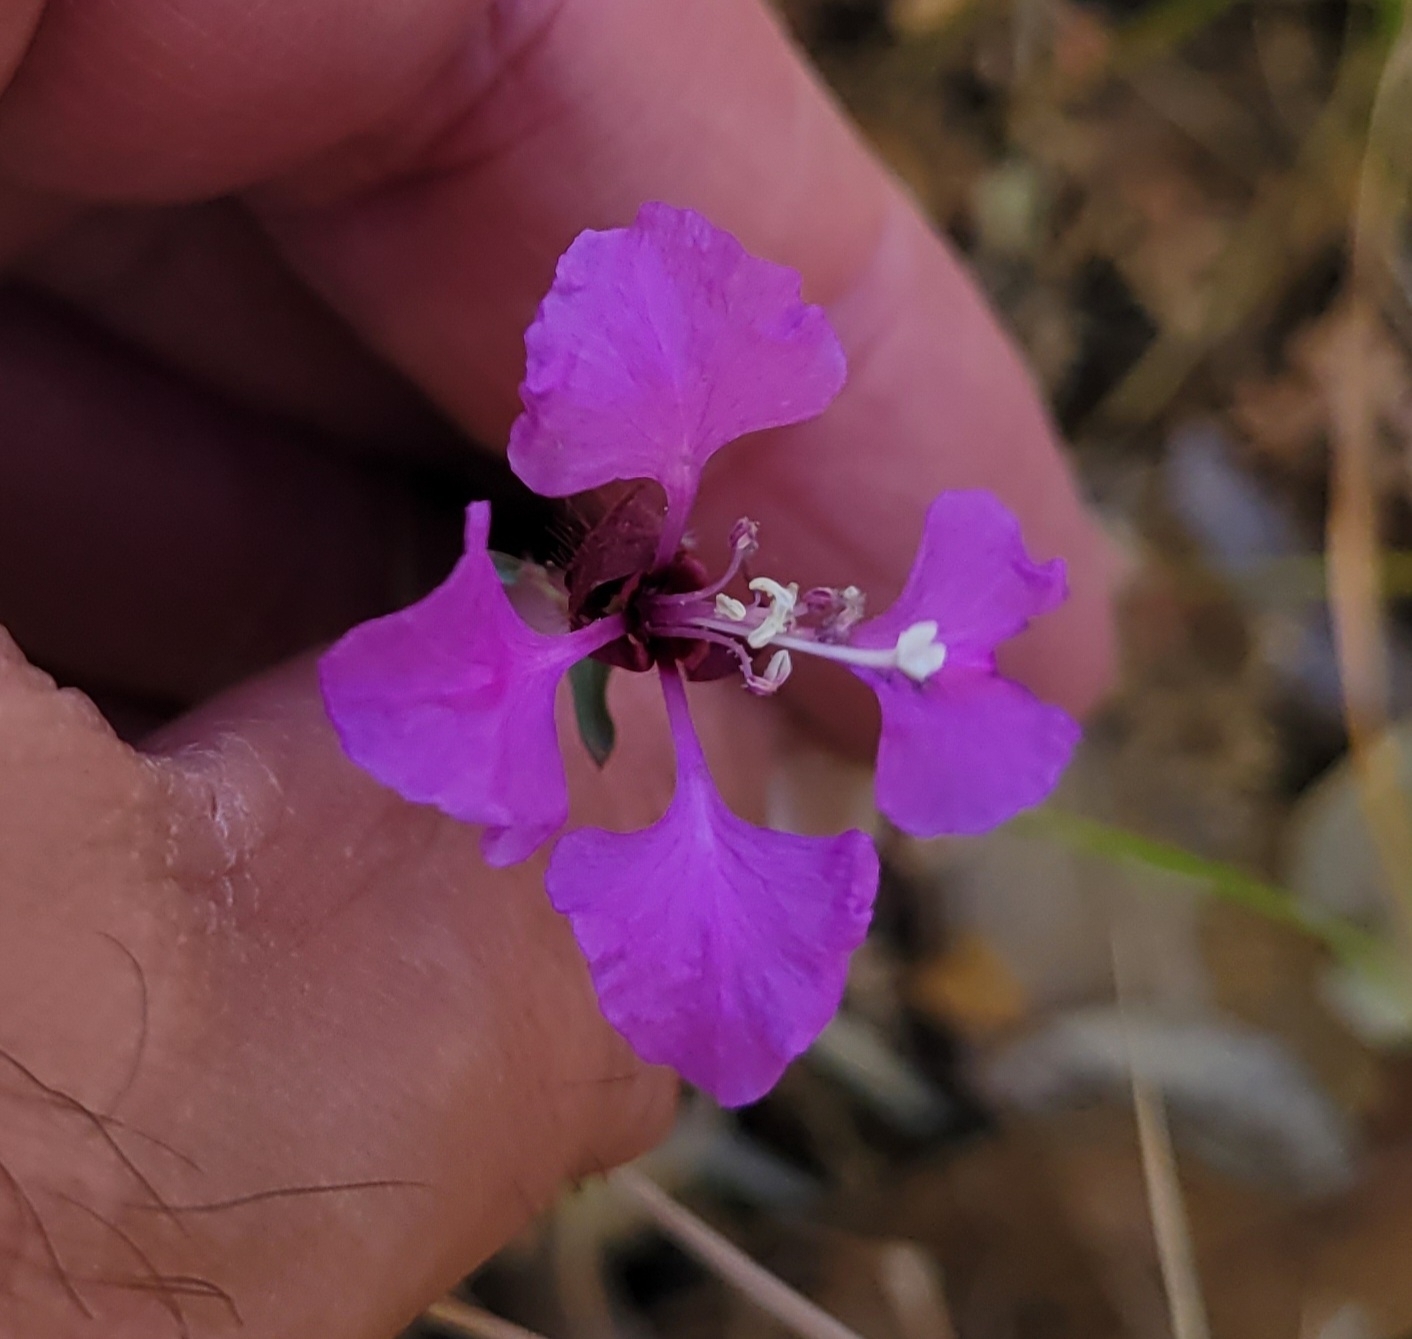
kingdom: Plantae
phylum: Tracheophyta
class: Magnoliopsida
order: Myrtales
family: Onagraceae
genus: Clarkia
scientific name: Clarkia unguiculata
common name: Clarkia
